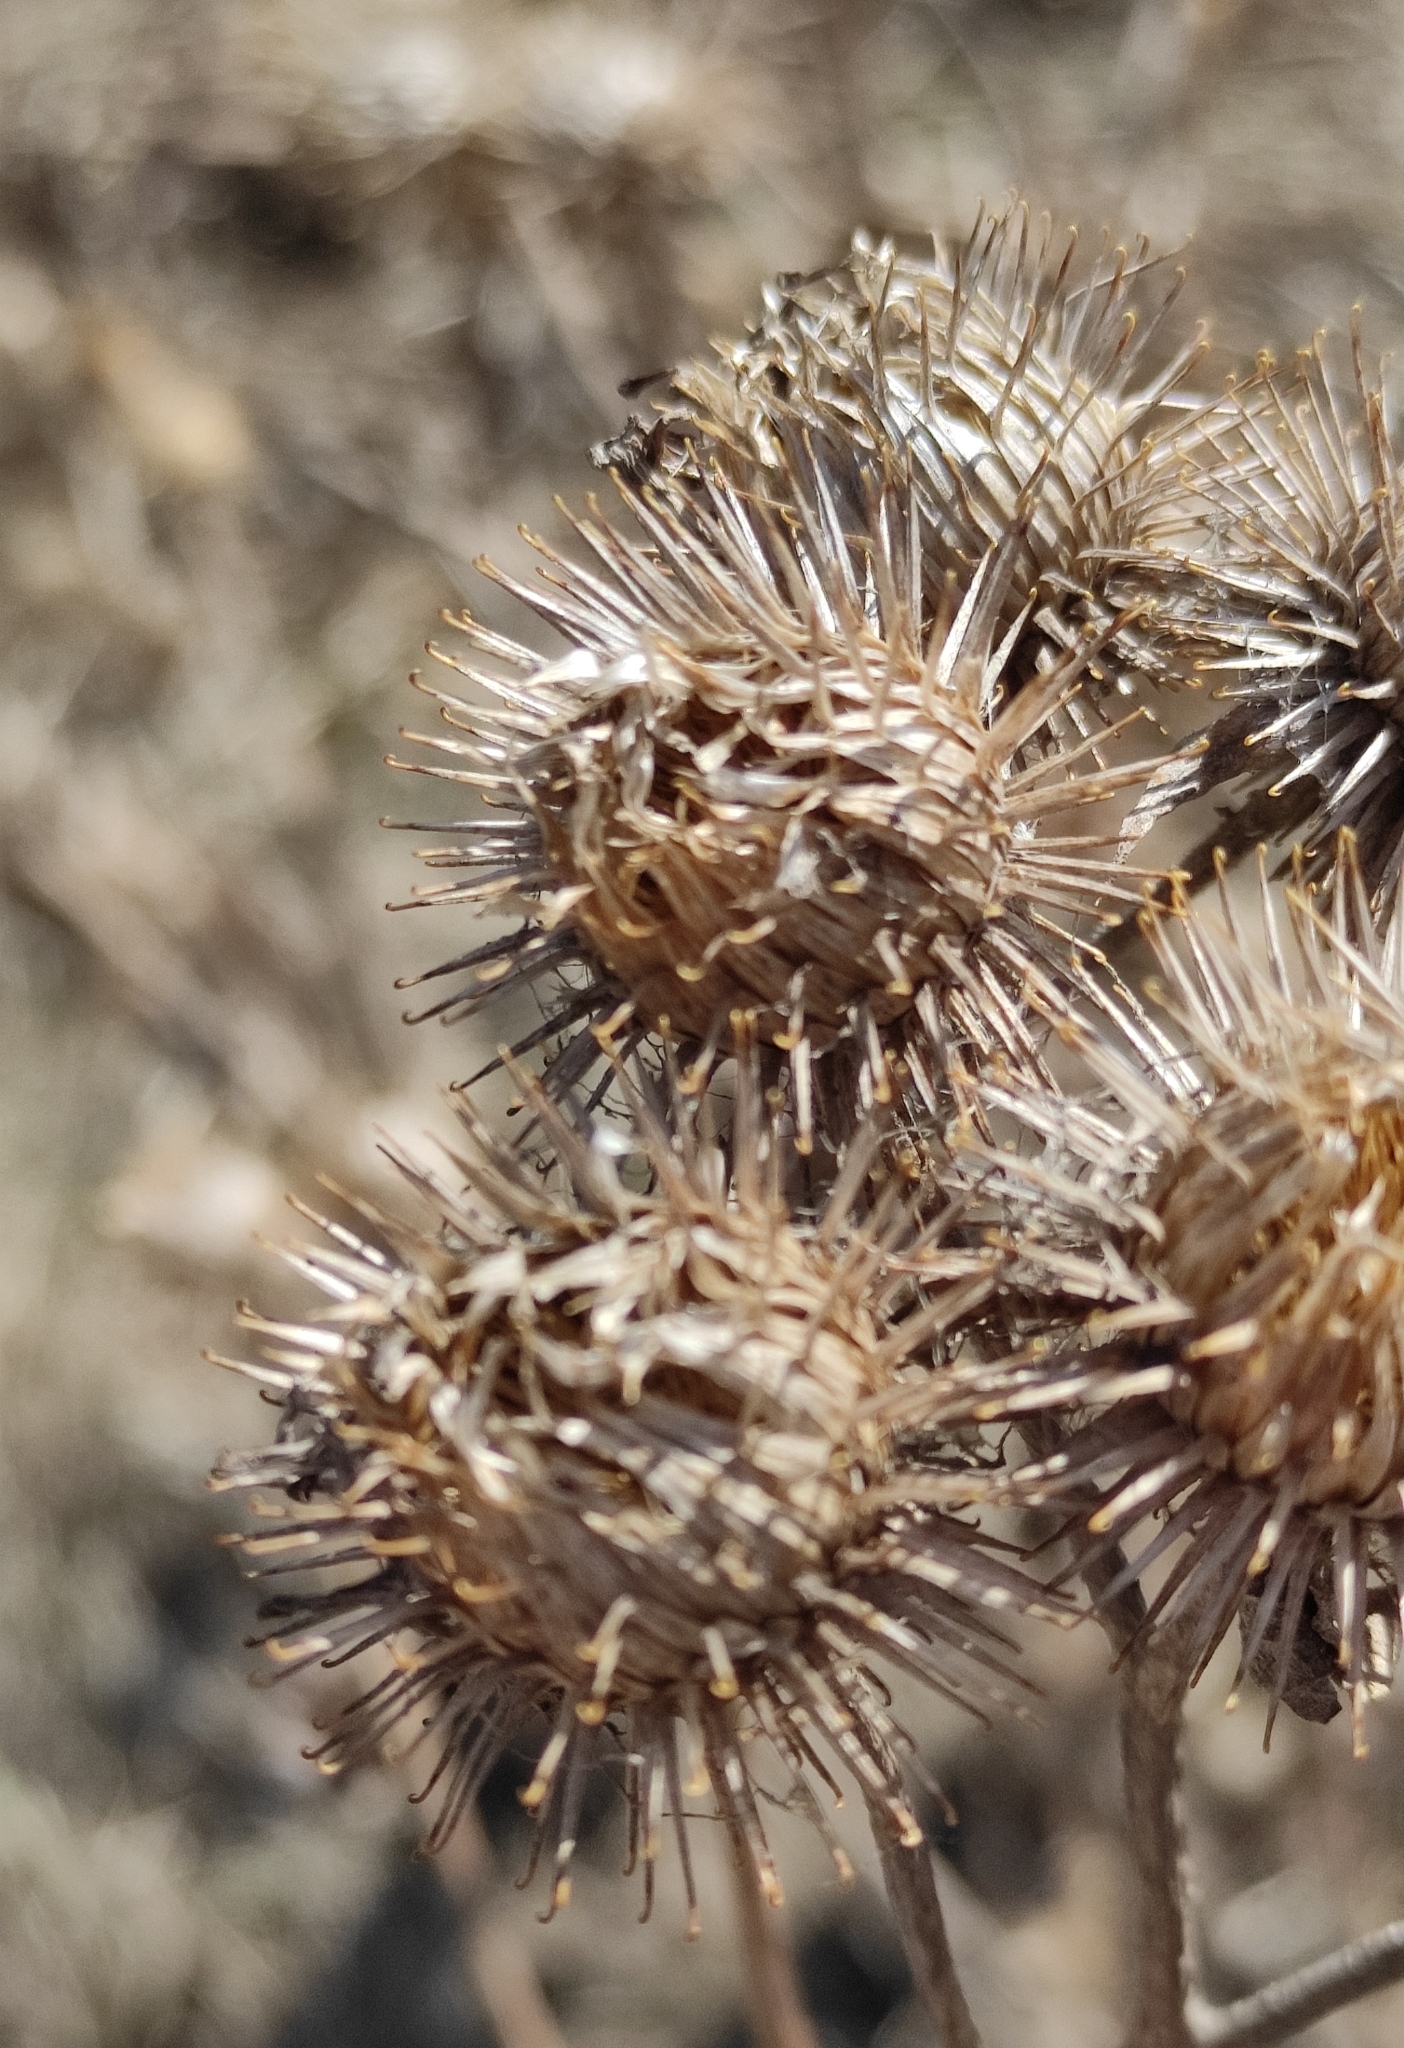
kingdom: Plantae
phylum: Tracheophyta
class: Magnoliopsida
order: Asterales
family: Asteraceae
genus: Arctium
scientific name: Arctium tomentosum
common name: Woolly burdock
